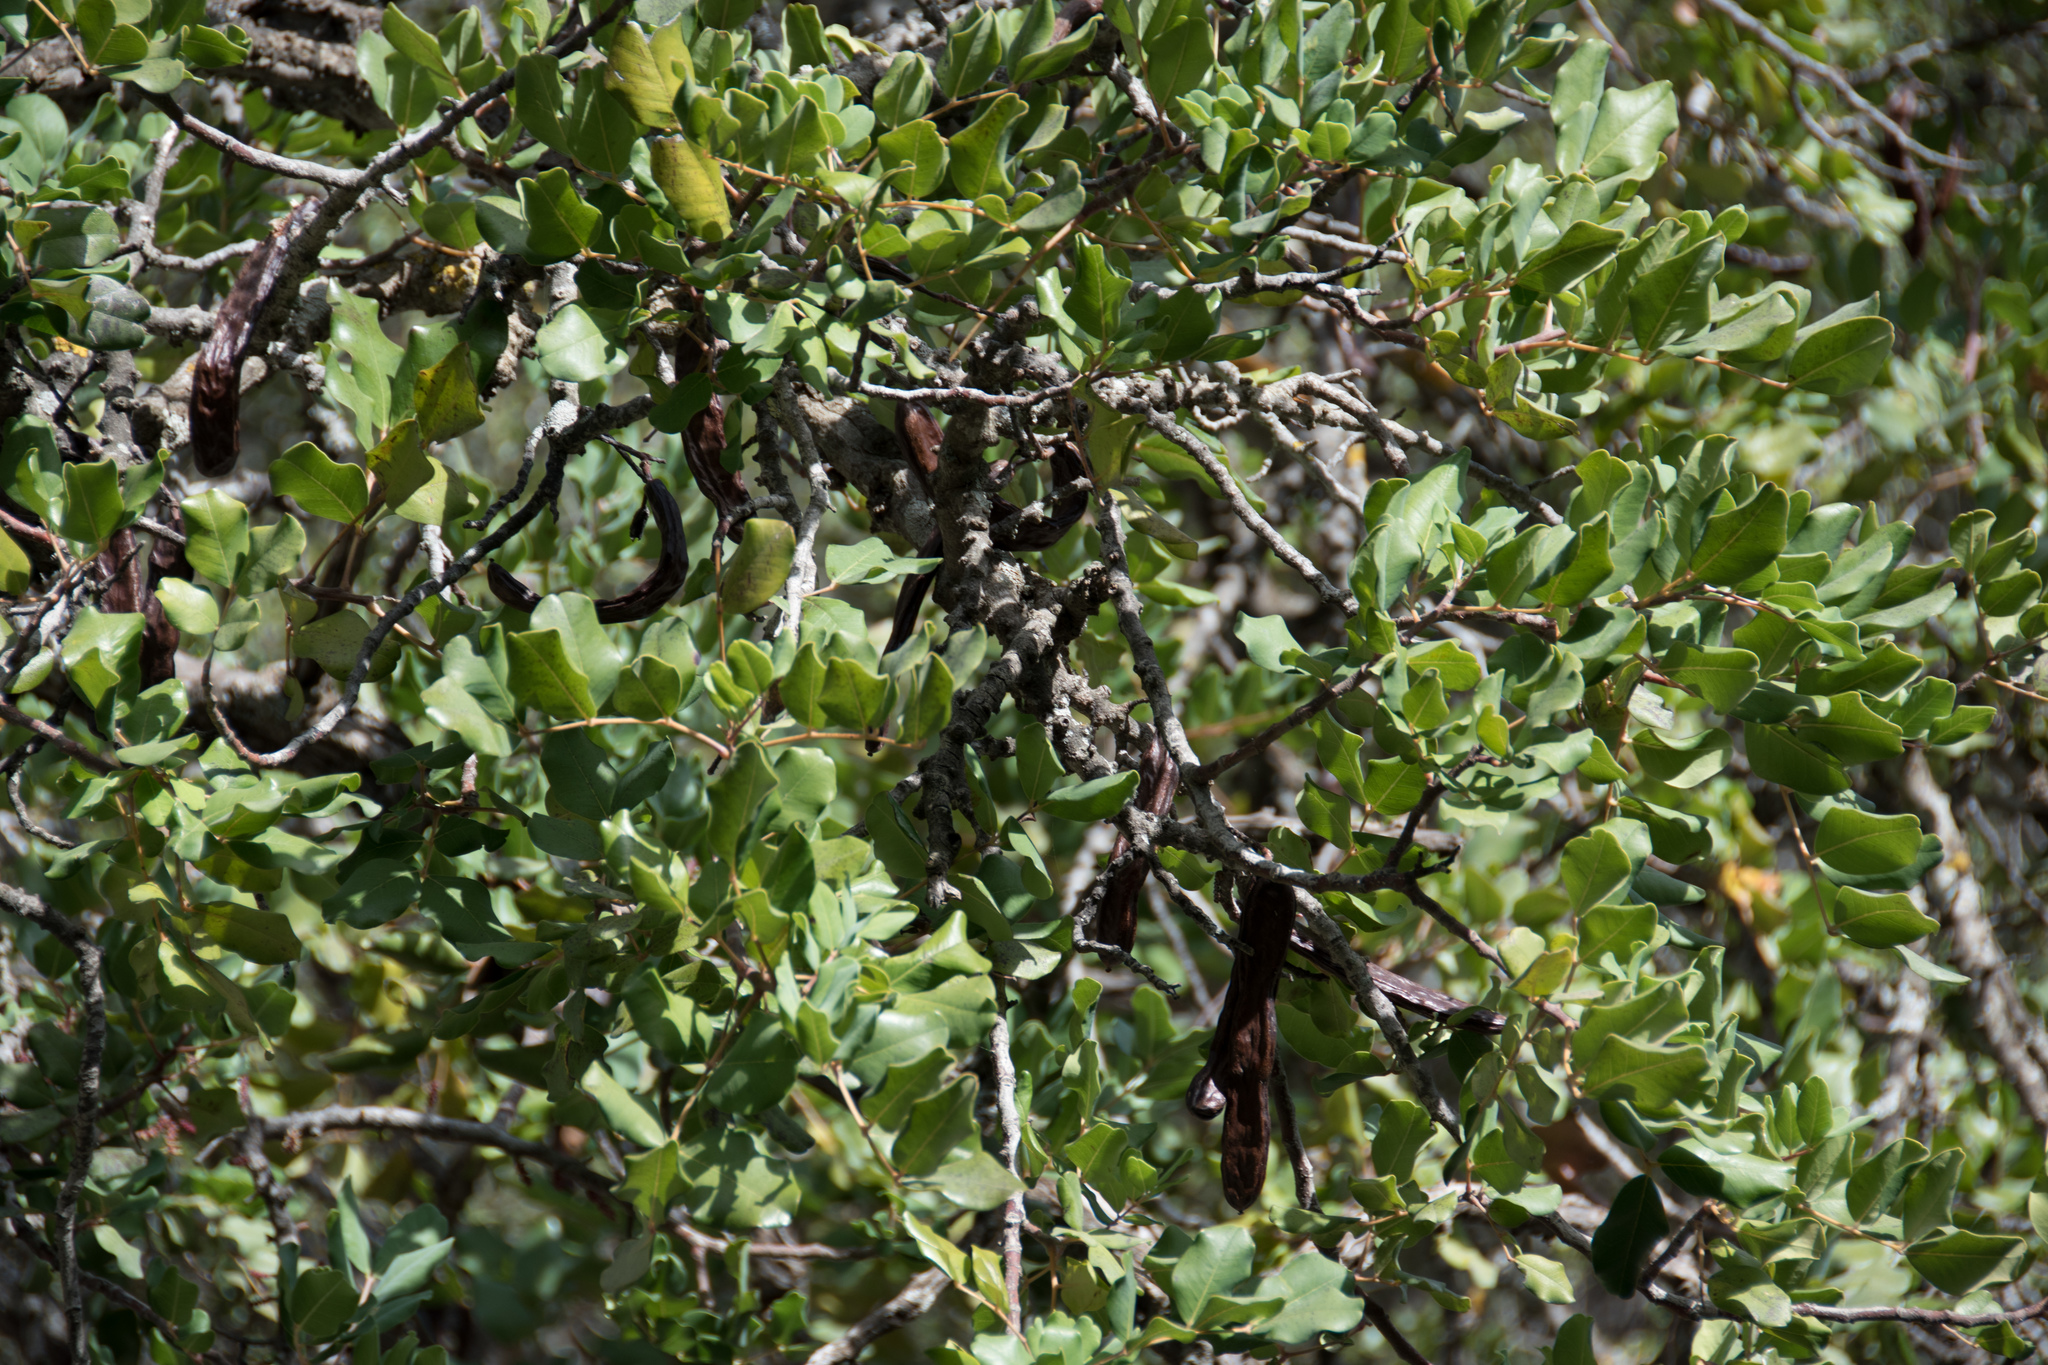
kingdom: Plantae
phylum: Tracheophyta
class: Magnoliopsida
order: Fabales
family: Fabaceae
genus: Ceratonia
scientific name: Ceratonia siliqua
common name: Carob
